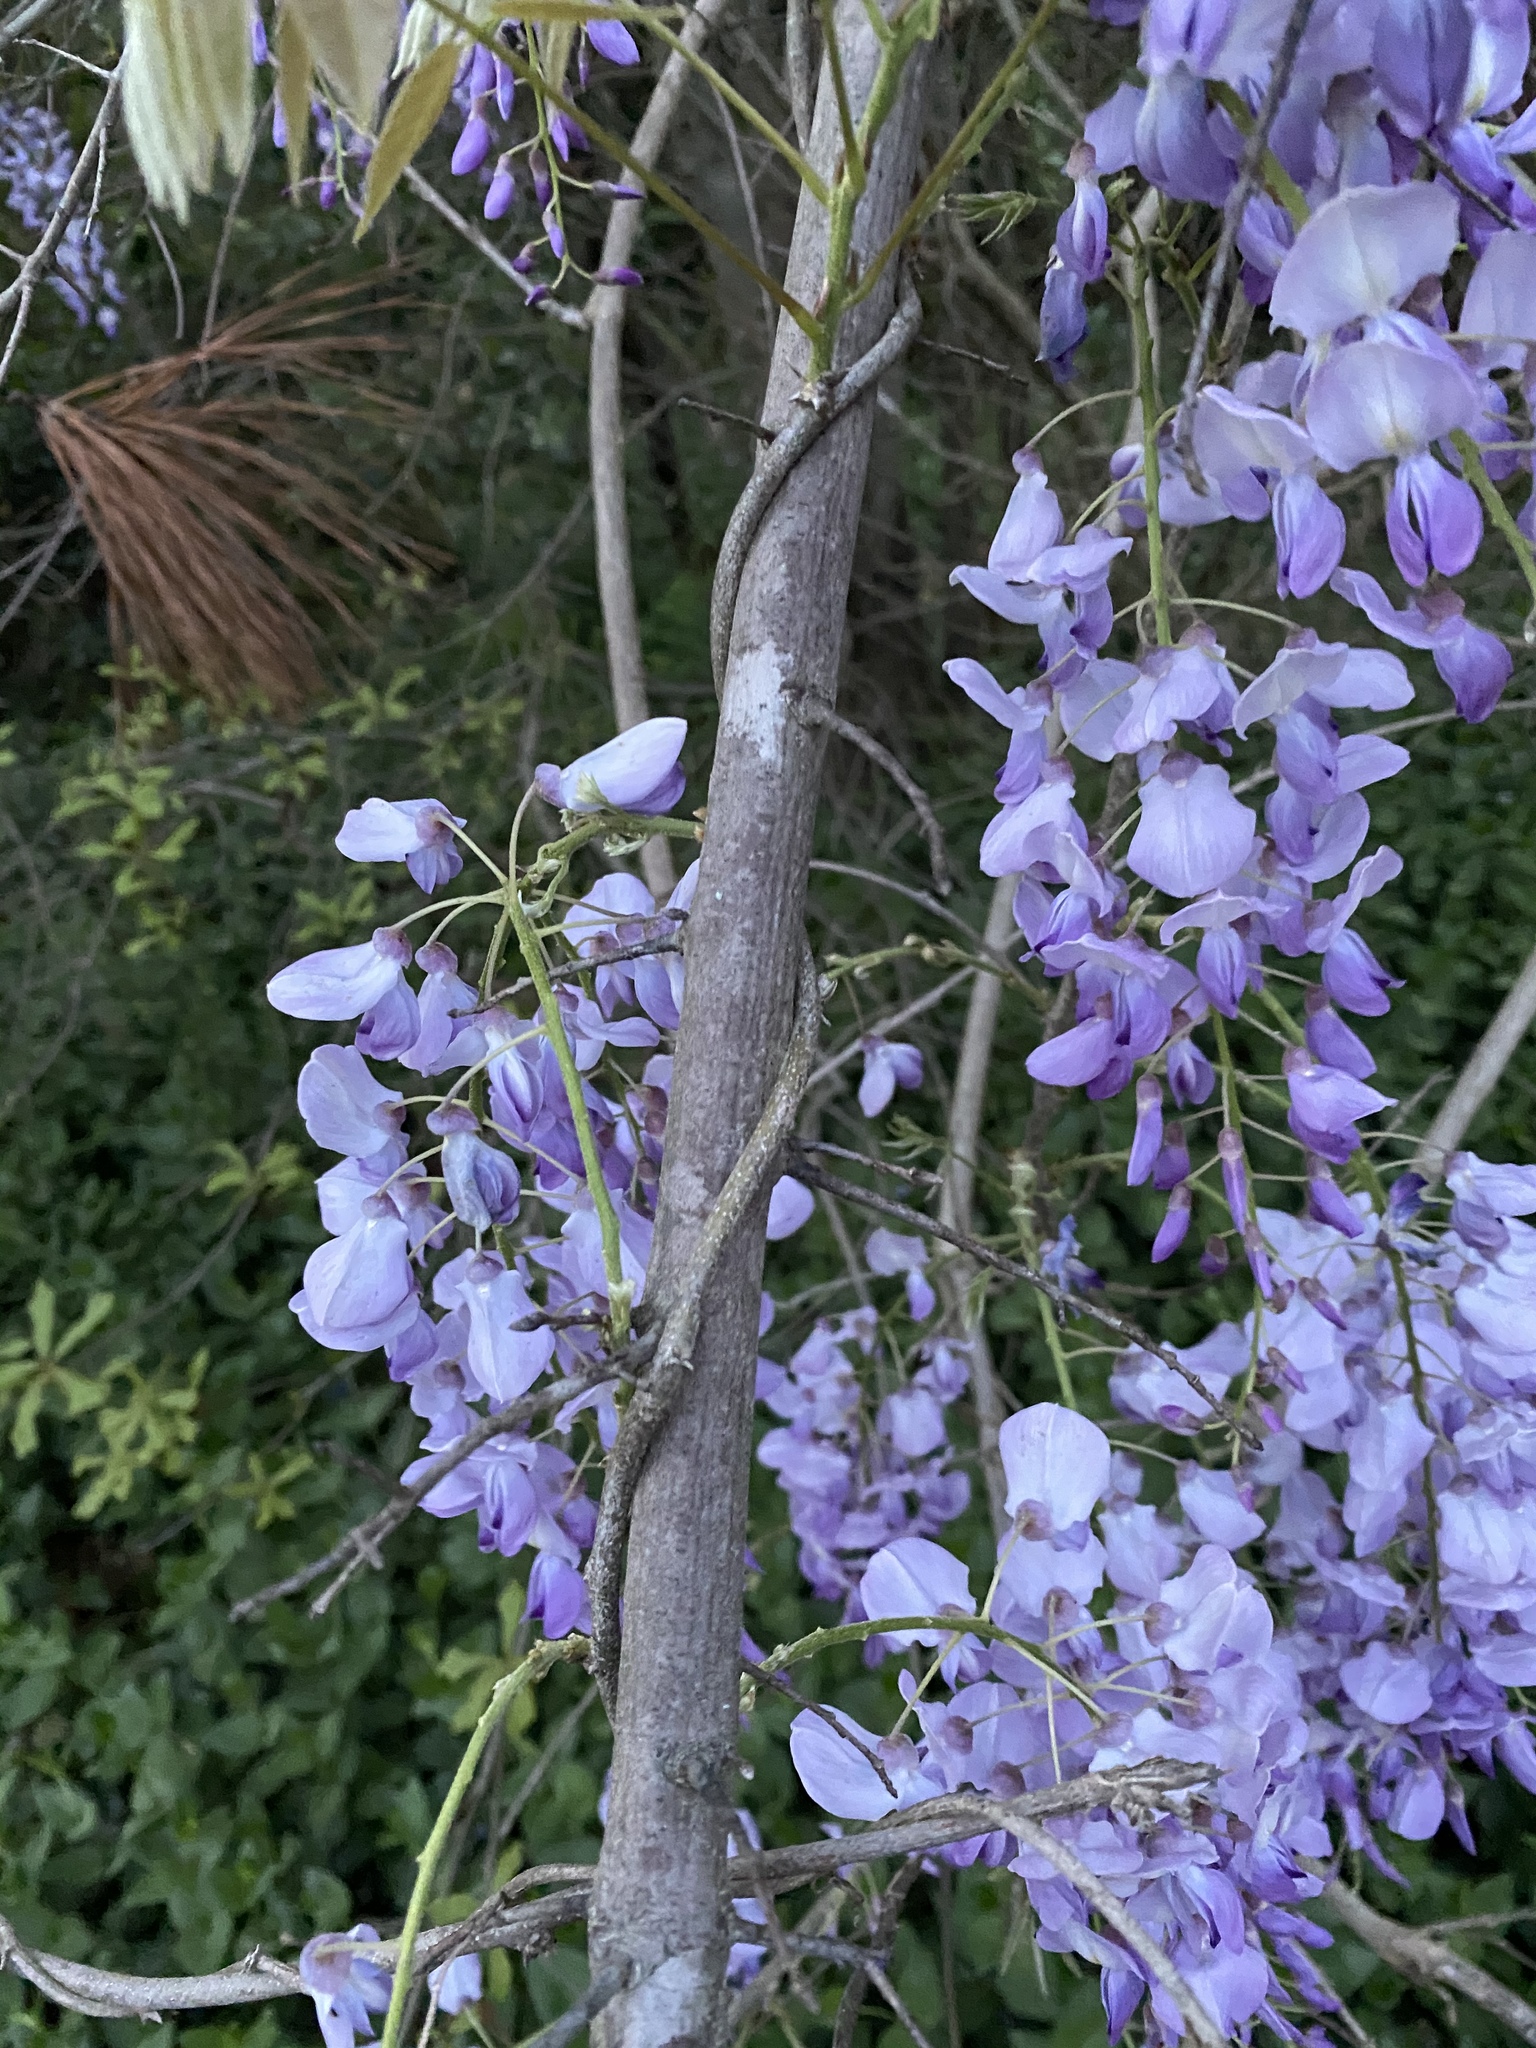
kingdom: Plantae
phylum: Tracheophyta
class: Magnoliopsida
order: Fabales
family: Fabaceae
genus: Wisteria
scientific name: Wisteria sinensis
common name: Chinese wisteria
